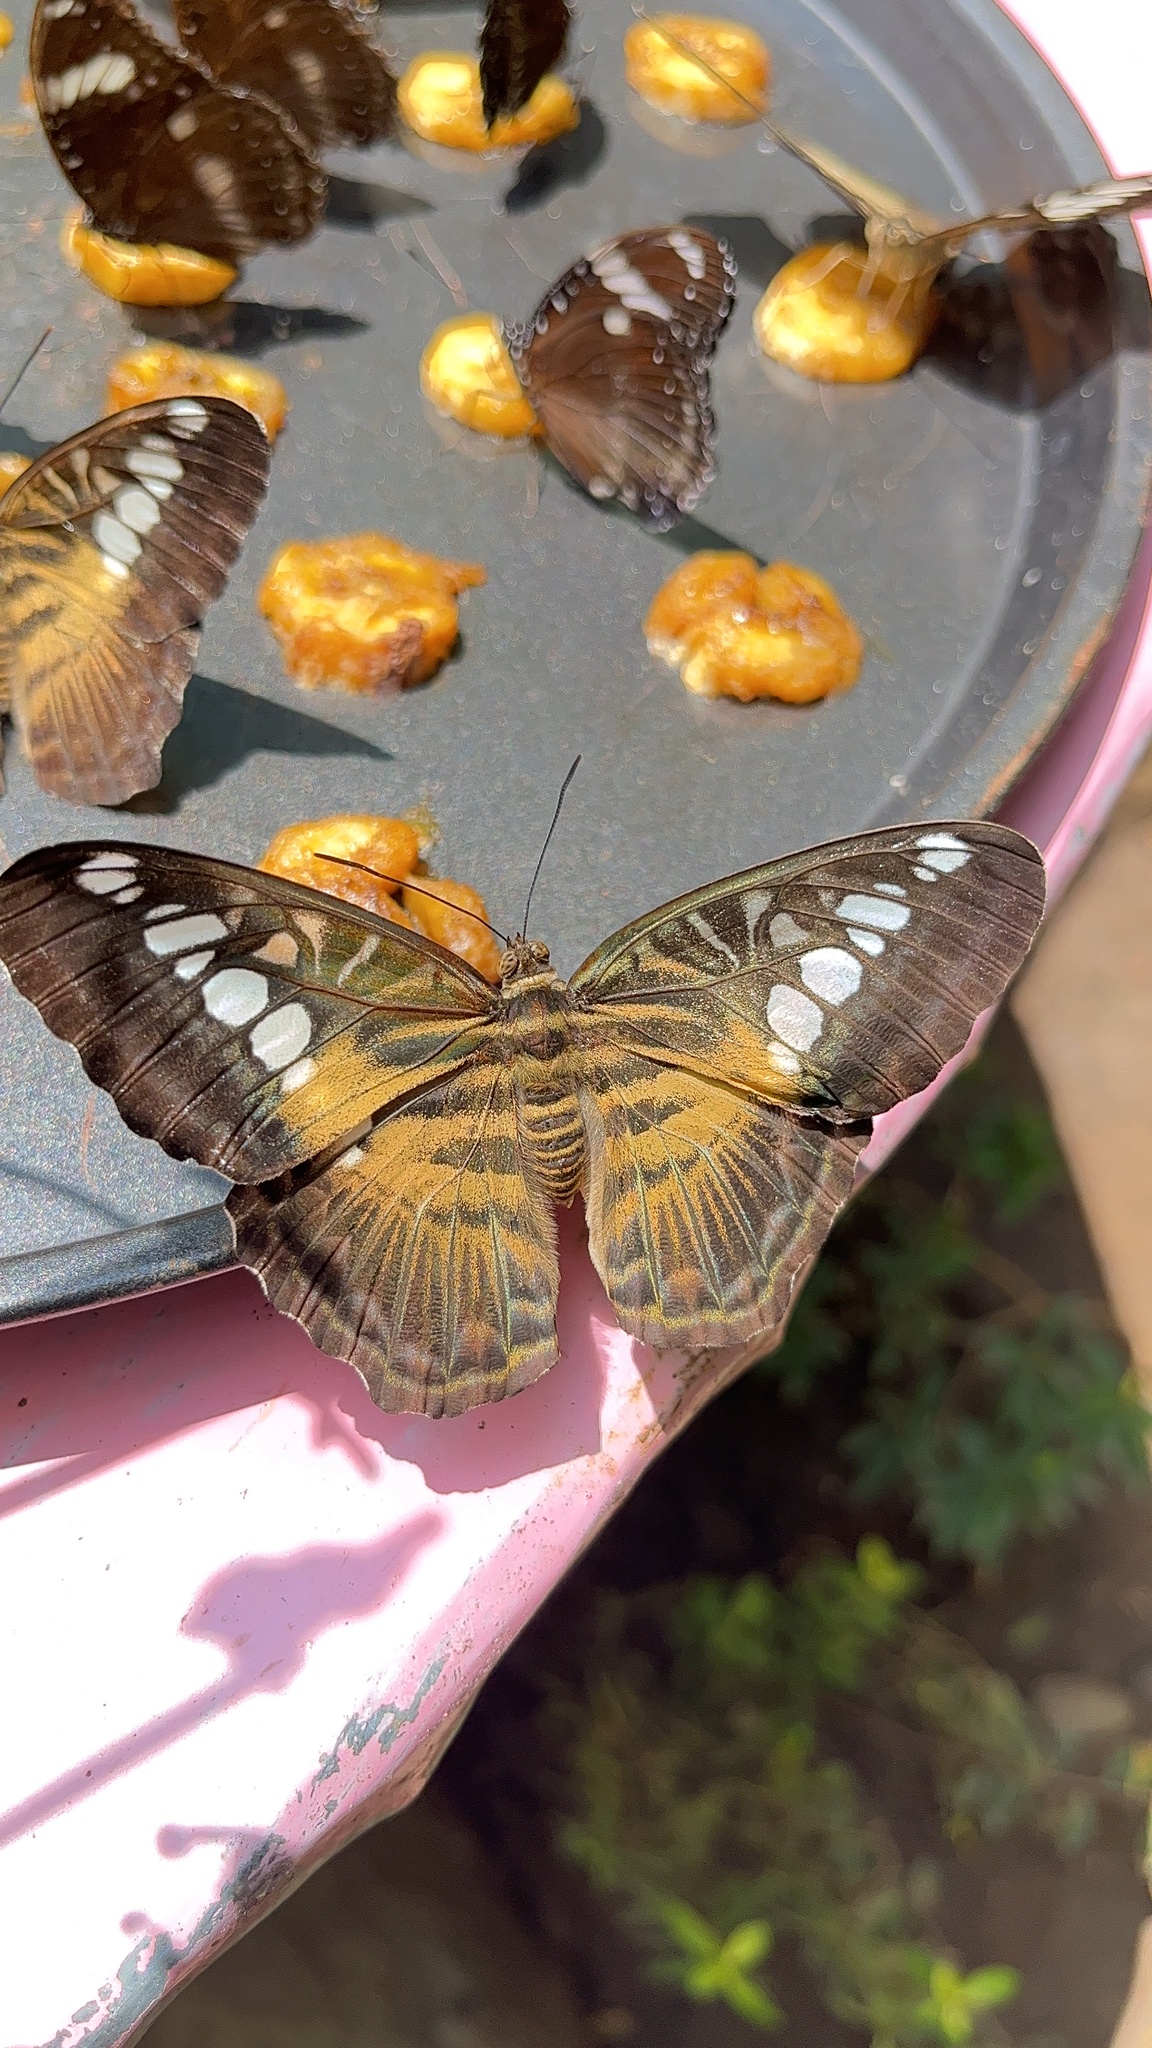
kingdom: Animalia
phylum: Arthropoda
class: Insecta
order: Lepidoptera
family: Nymphalidae
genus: Kallima
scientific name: Kallima sylvia
